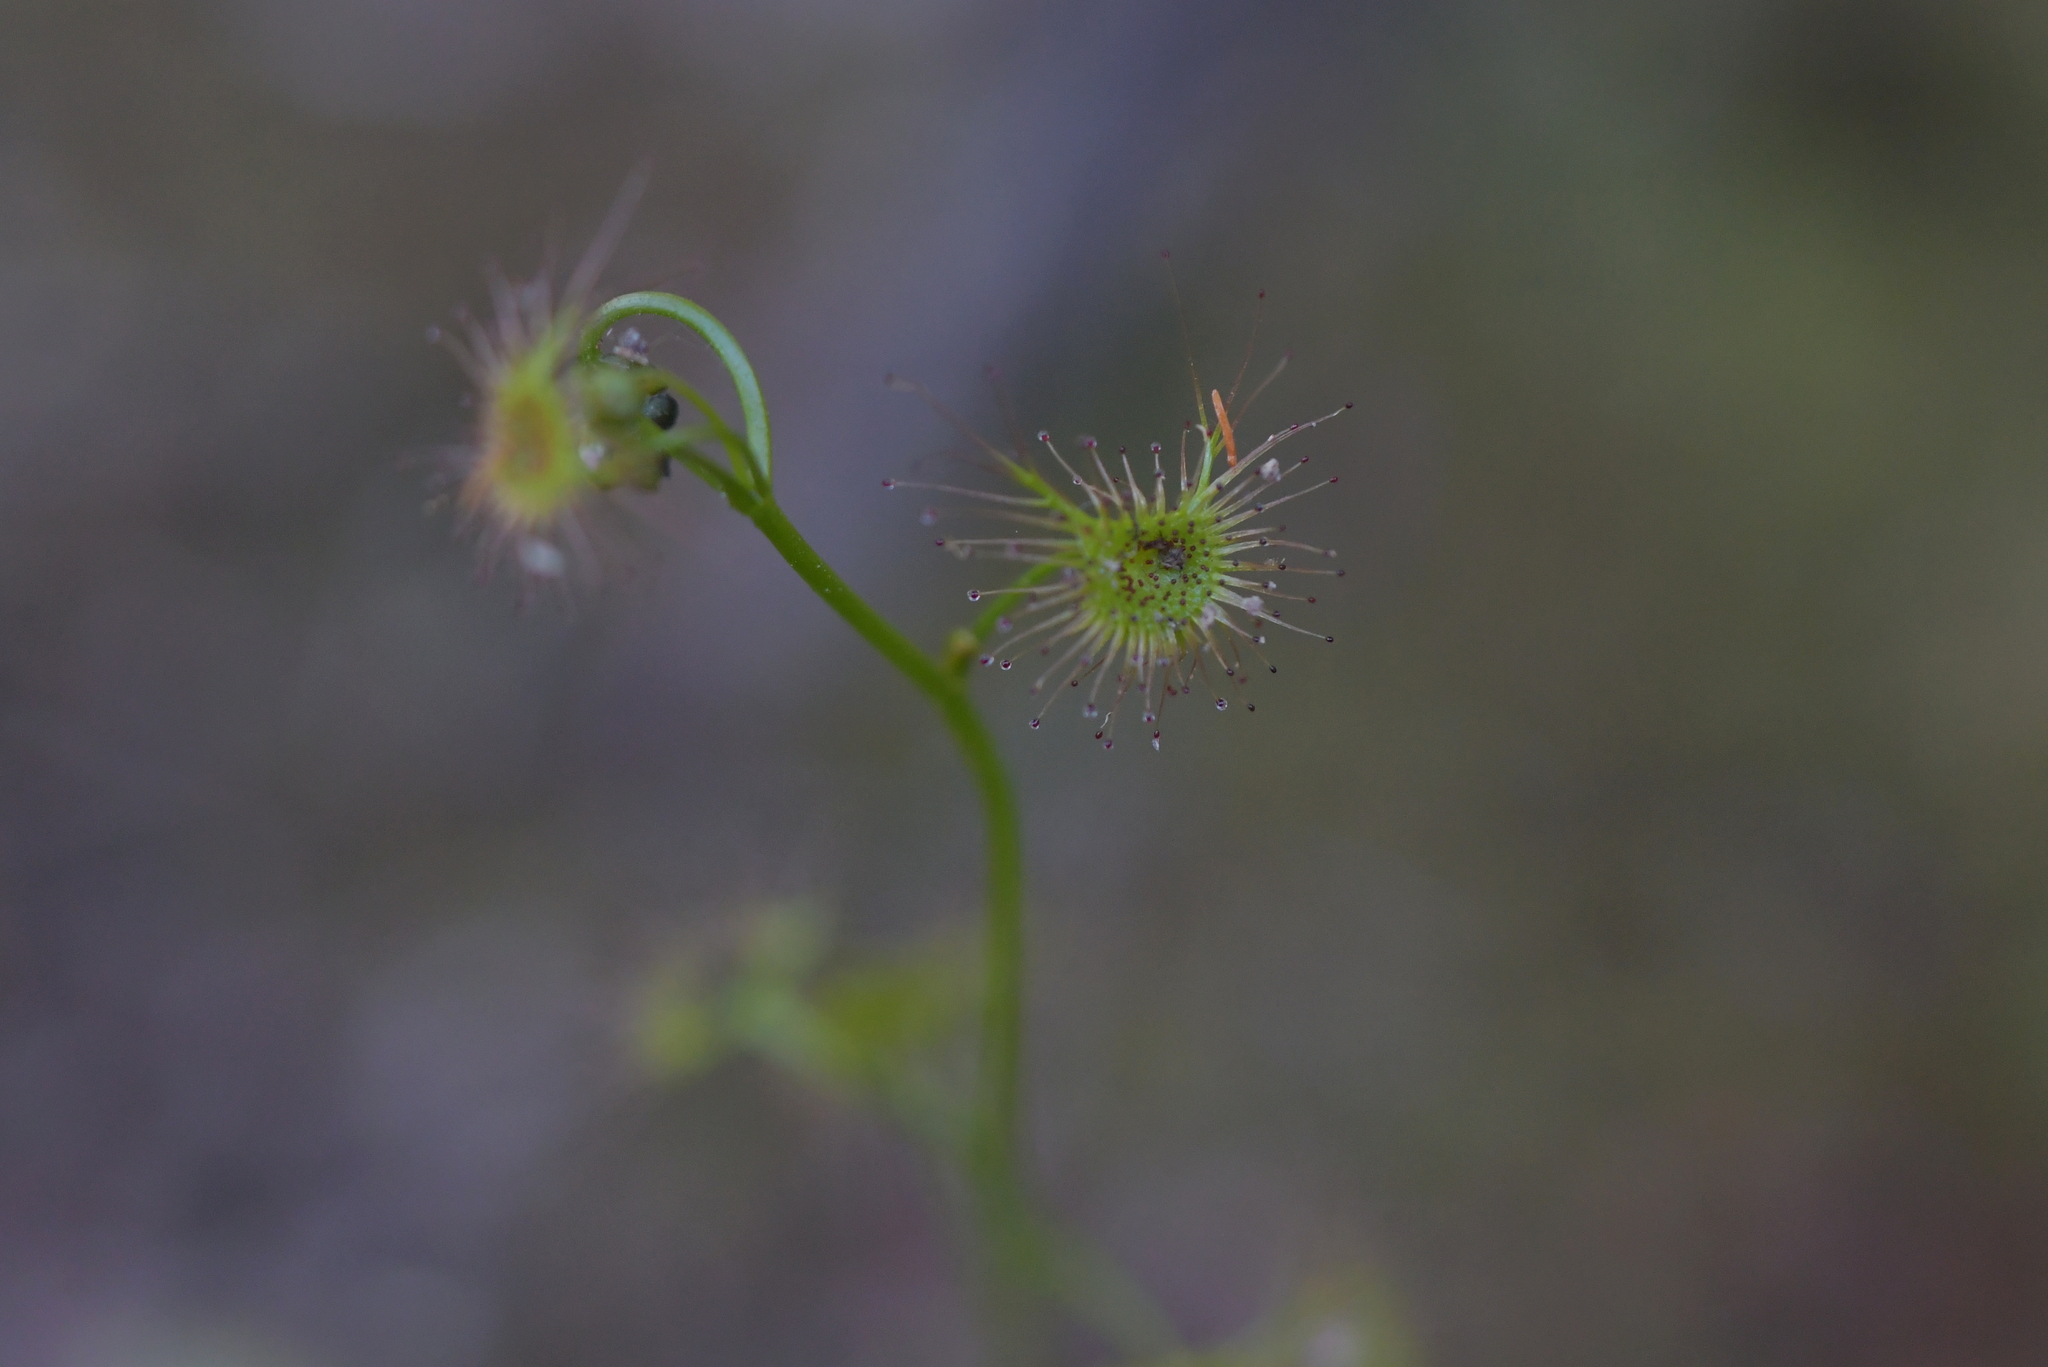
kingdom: Plantae
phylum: Tracheophyta
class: Magnoliopsida
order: Caryophyllales
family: Droseraceae
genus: Drosera
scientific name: Drosera peltata
